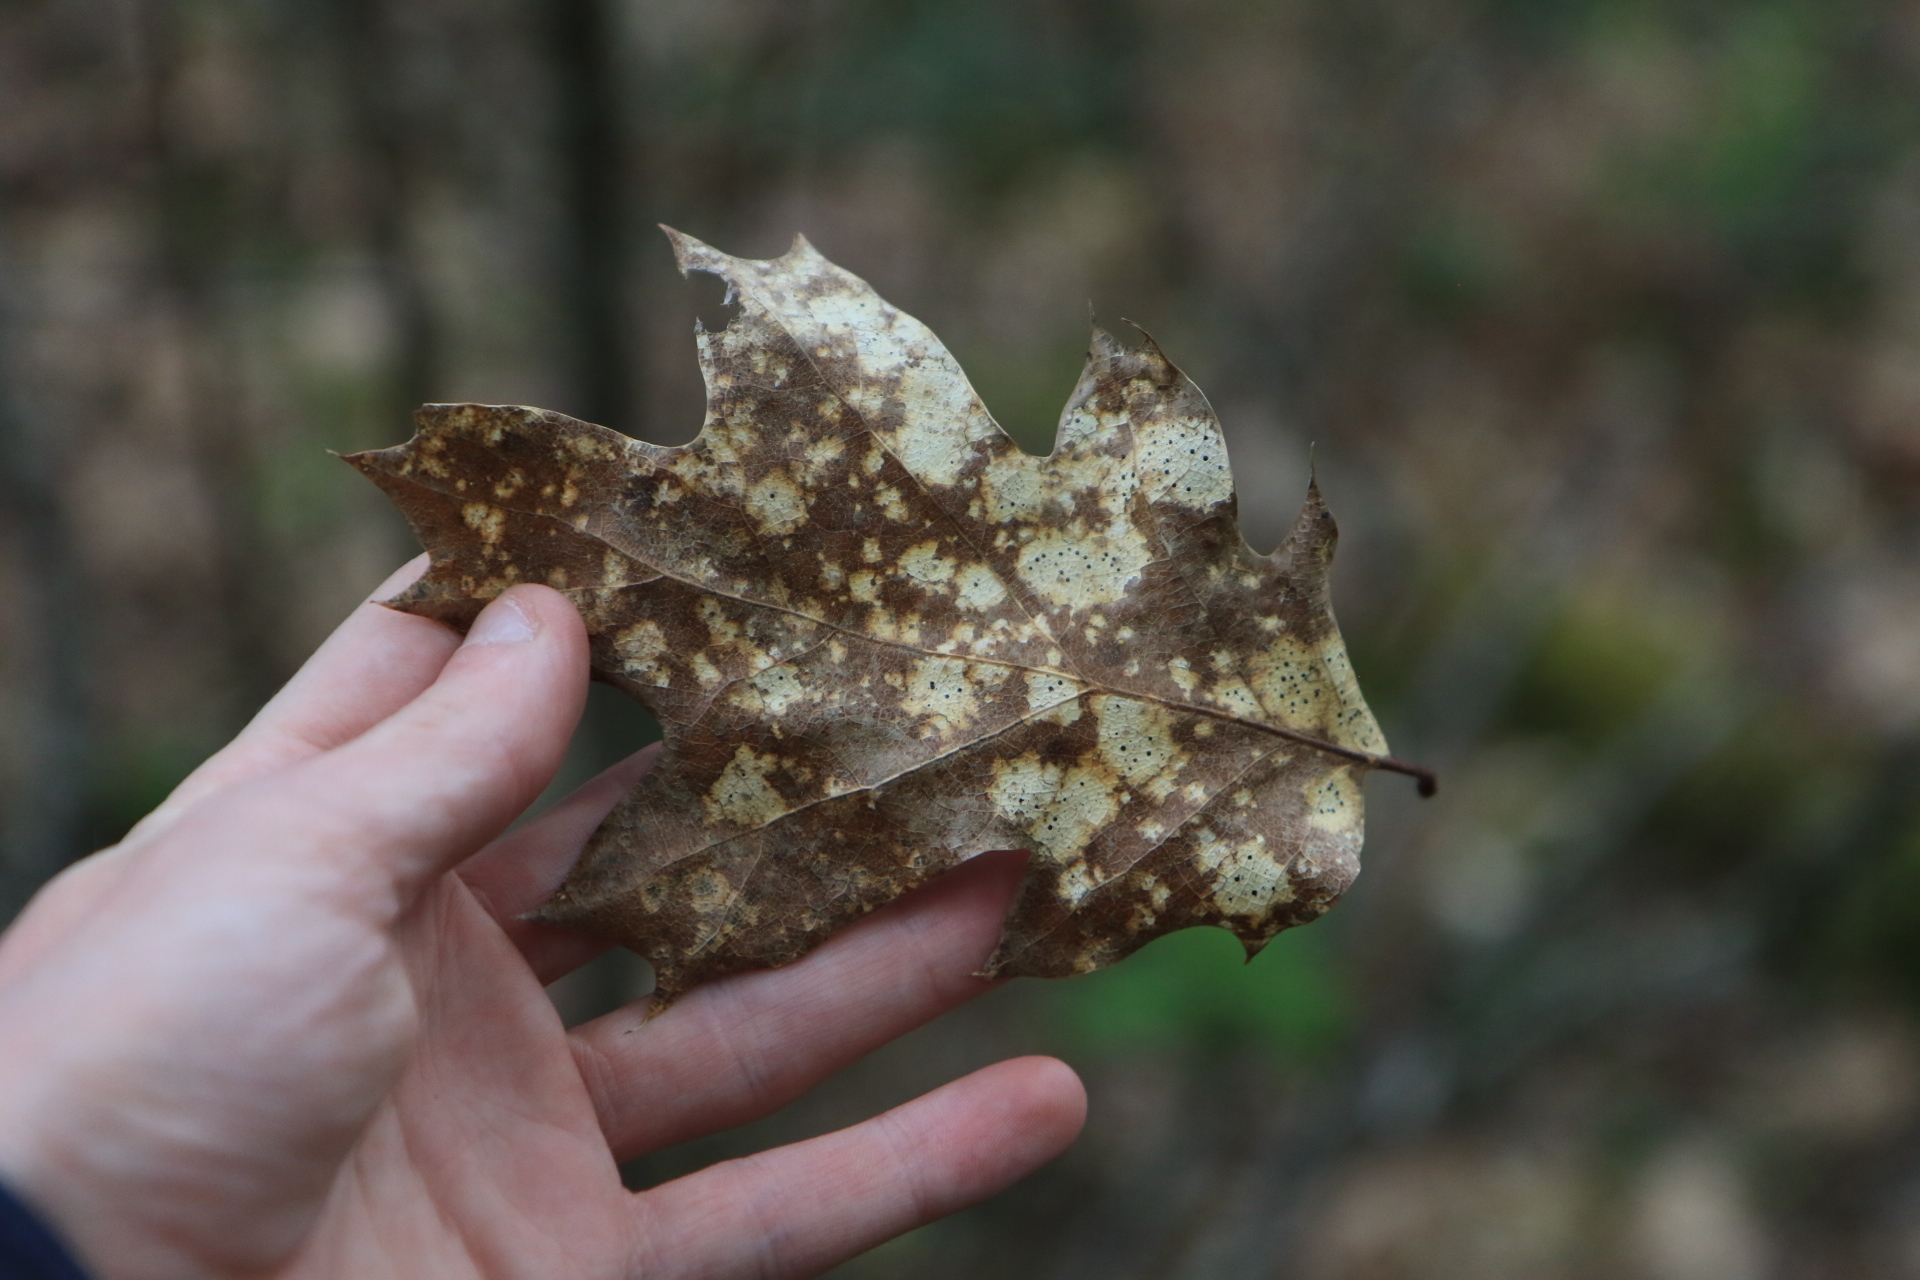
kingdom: Plantae
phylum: Tracheophyta
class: Magnoliopsida
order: Fagales
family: Fagaceae
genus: Quercus
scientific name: Quercus kelloggii
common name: California black oak
